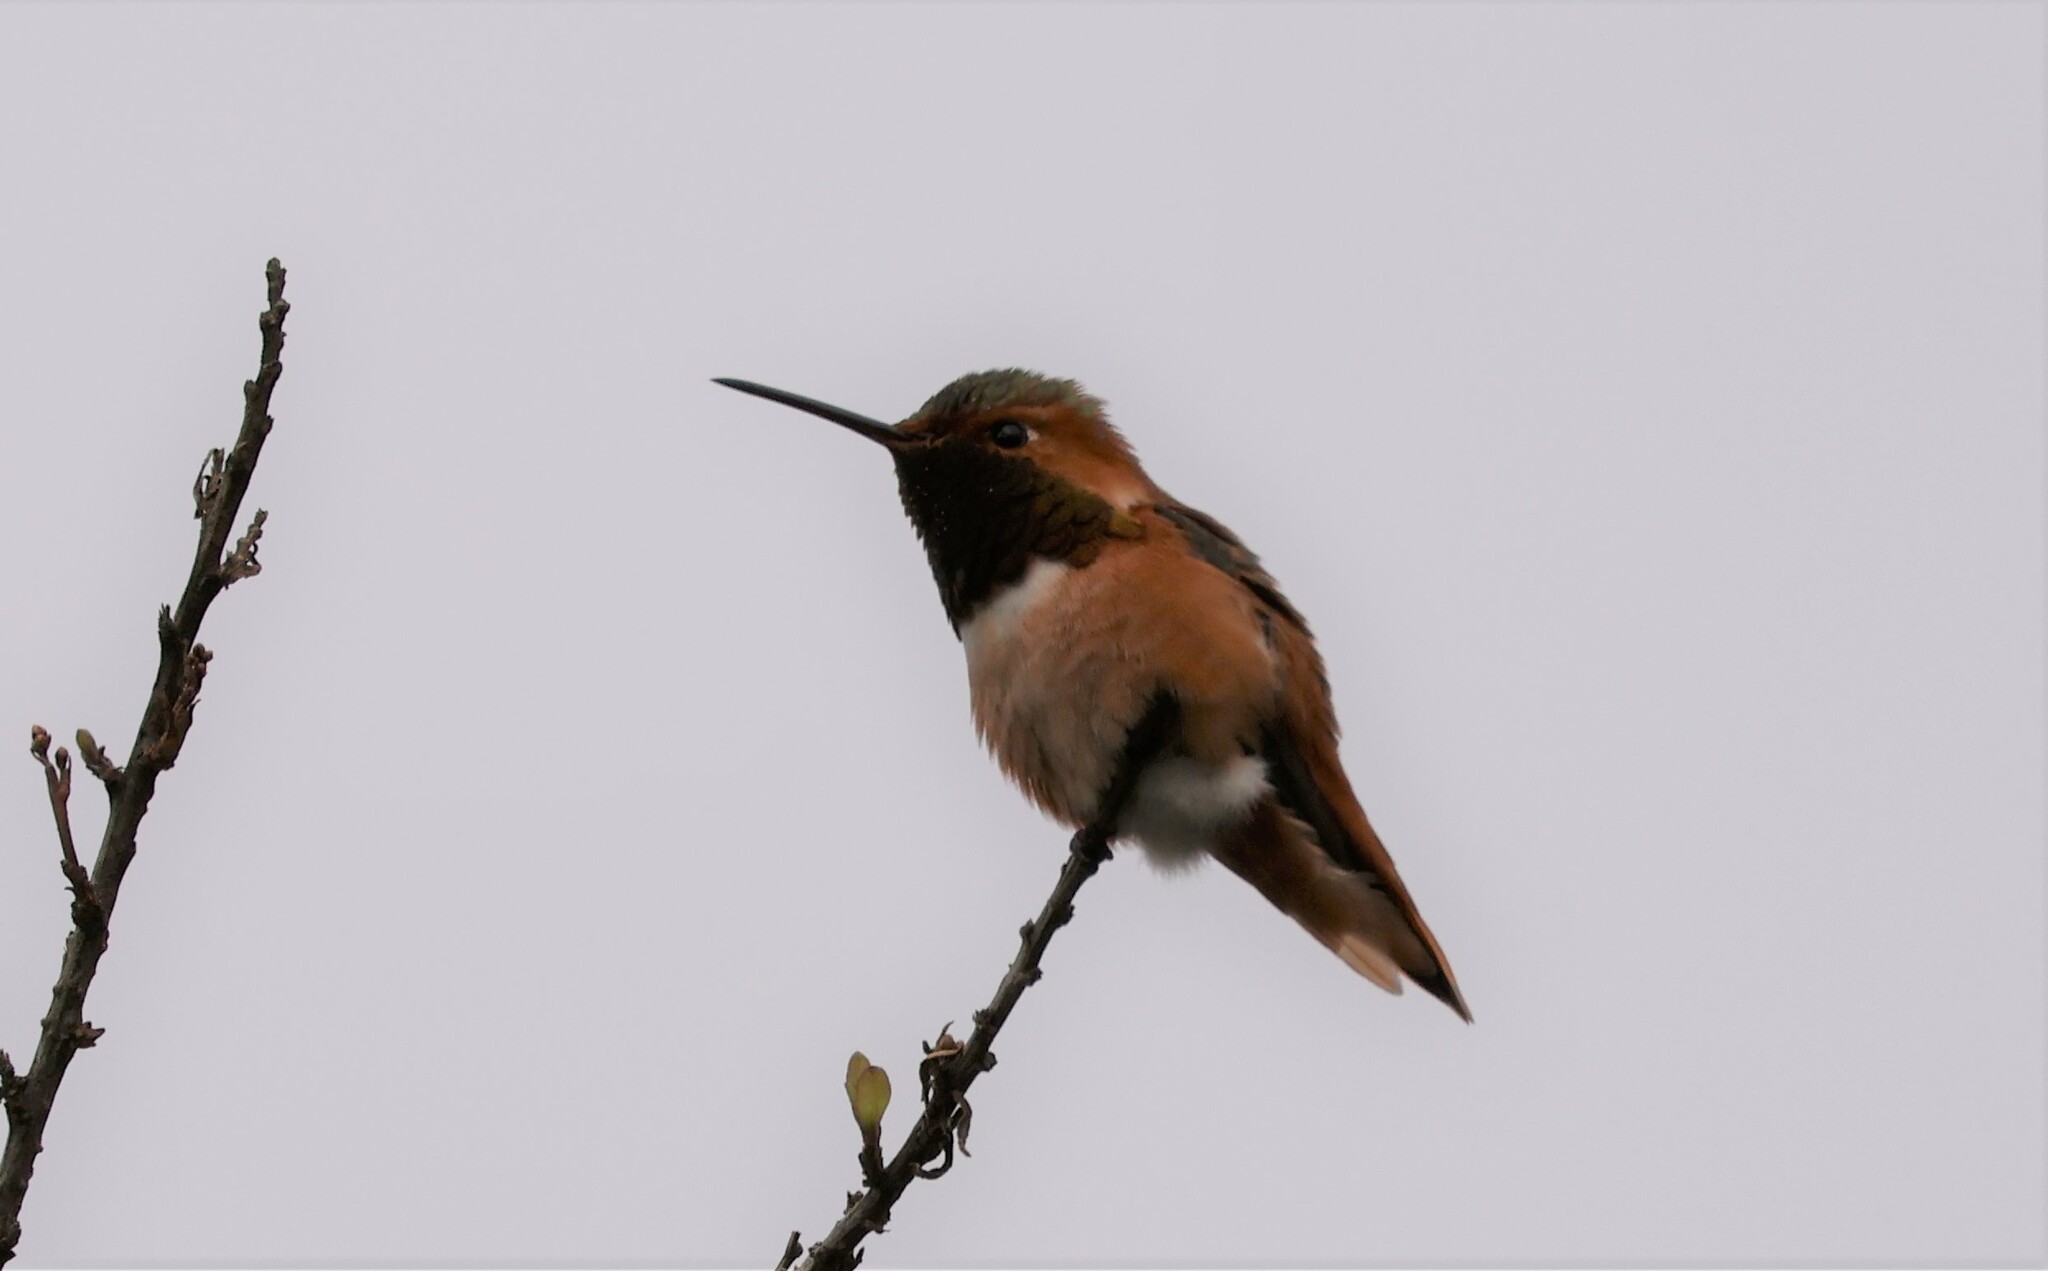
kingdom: Animalia
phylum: Chordata
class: Aves
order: Apodiformes
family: Trochilidae
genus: Selasphorus
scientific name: Selasphorus sasin
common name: Allen's hummingbird
